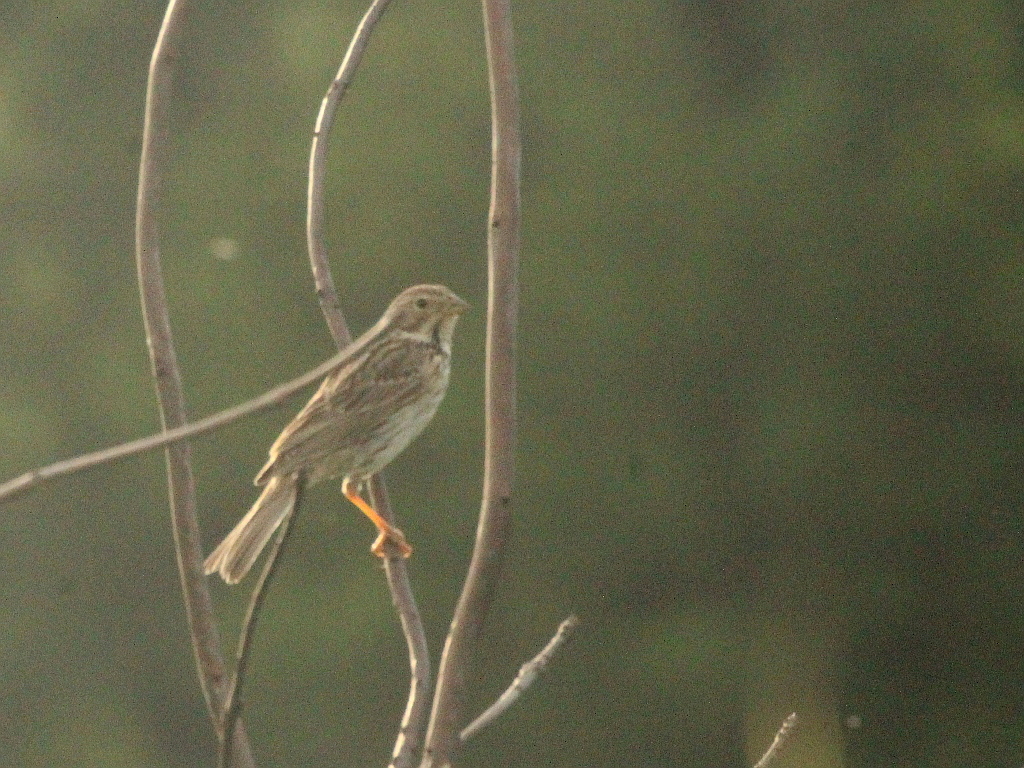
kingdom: Animalia
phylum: Chordata
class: Aves
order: Passeriformes
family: Emberizidae
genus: Emberiza
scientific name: Emberiza calandra
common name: Corn bunting
